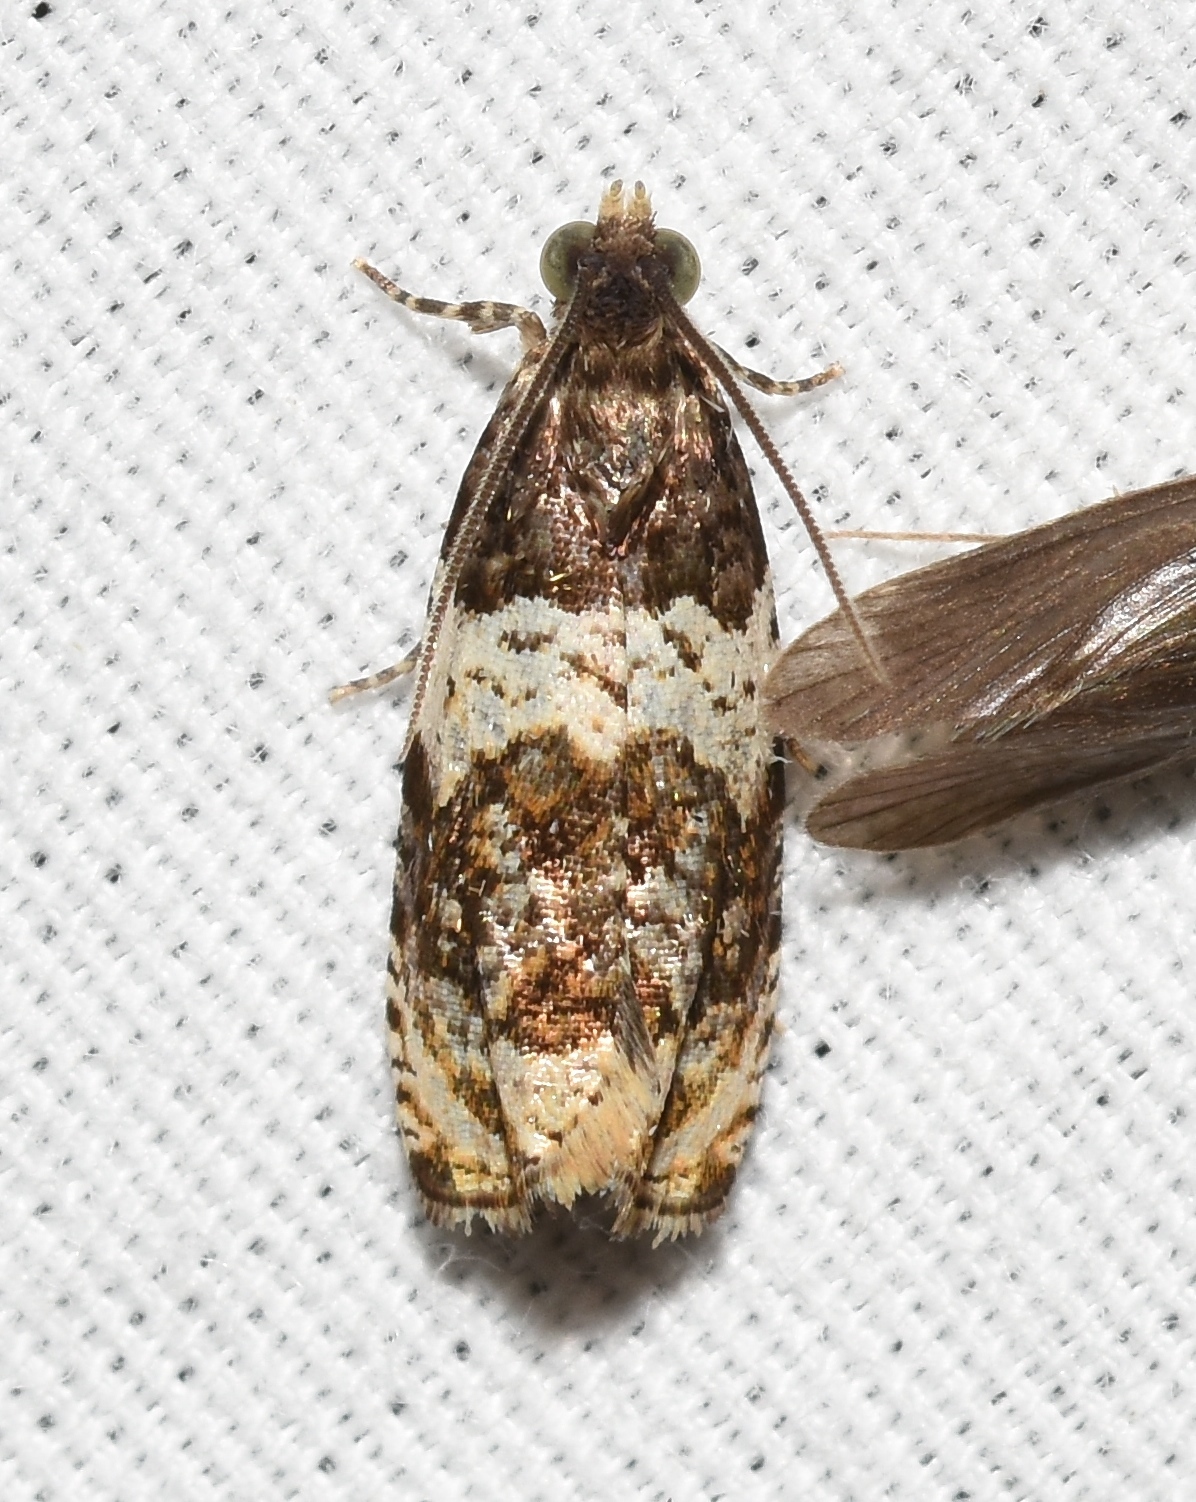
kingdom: Animalia
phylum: Arthropoda
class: Insecta
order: Lepidoptera
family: Tortricidae
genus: Olethreutes
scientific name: Olethreutes fasciatana
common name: Banded olethreutes moth
